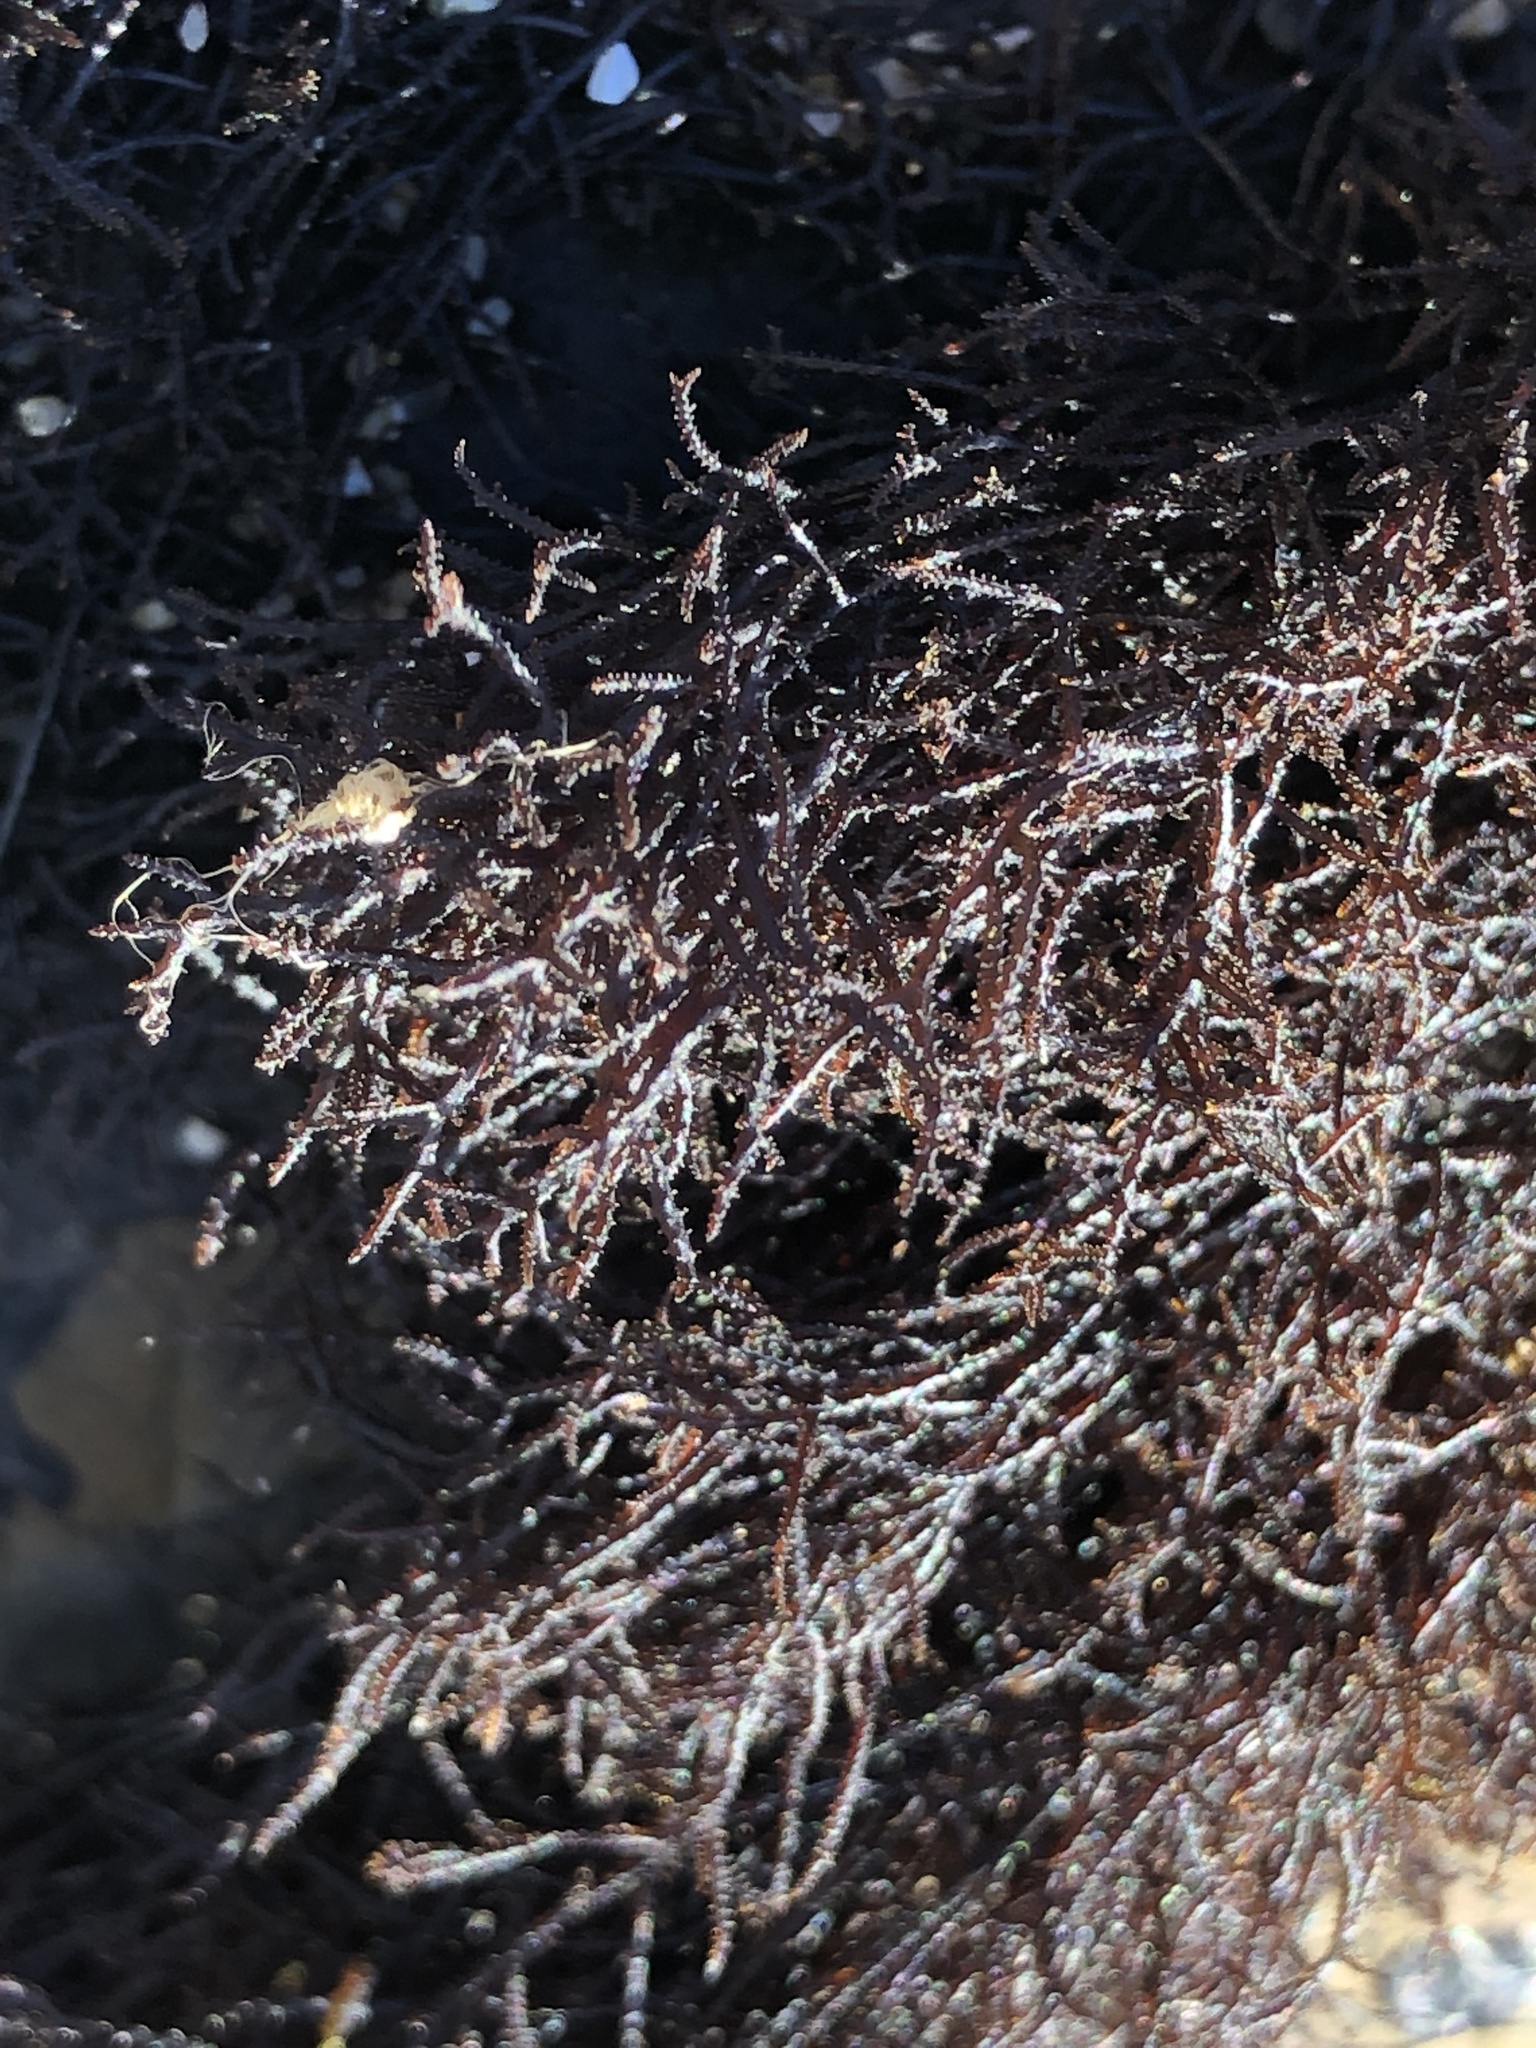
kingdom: Plantae
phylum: Rhodophyta
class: Florideophyceae
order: Gigartinales
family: Endocladiaceae
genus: Endocladia
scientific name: Endocladia muricata
